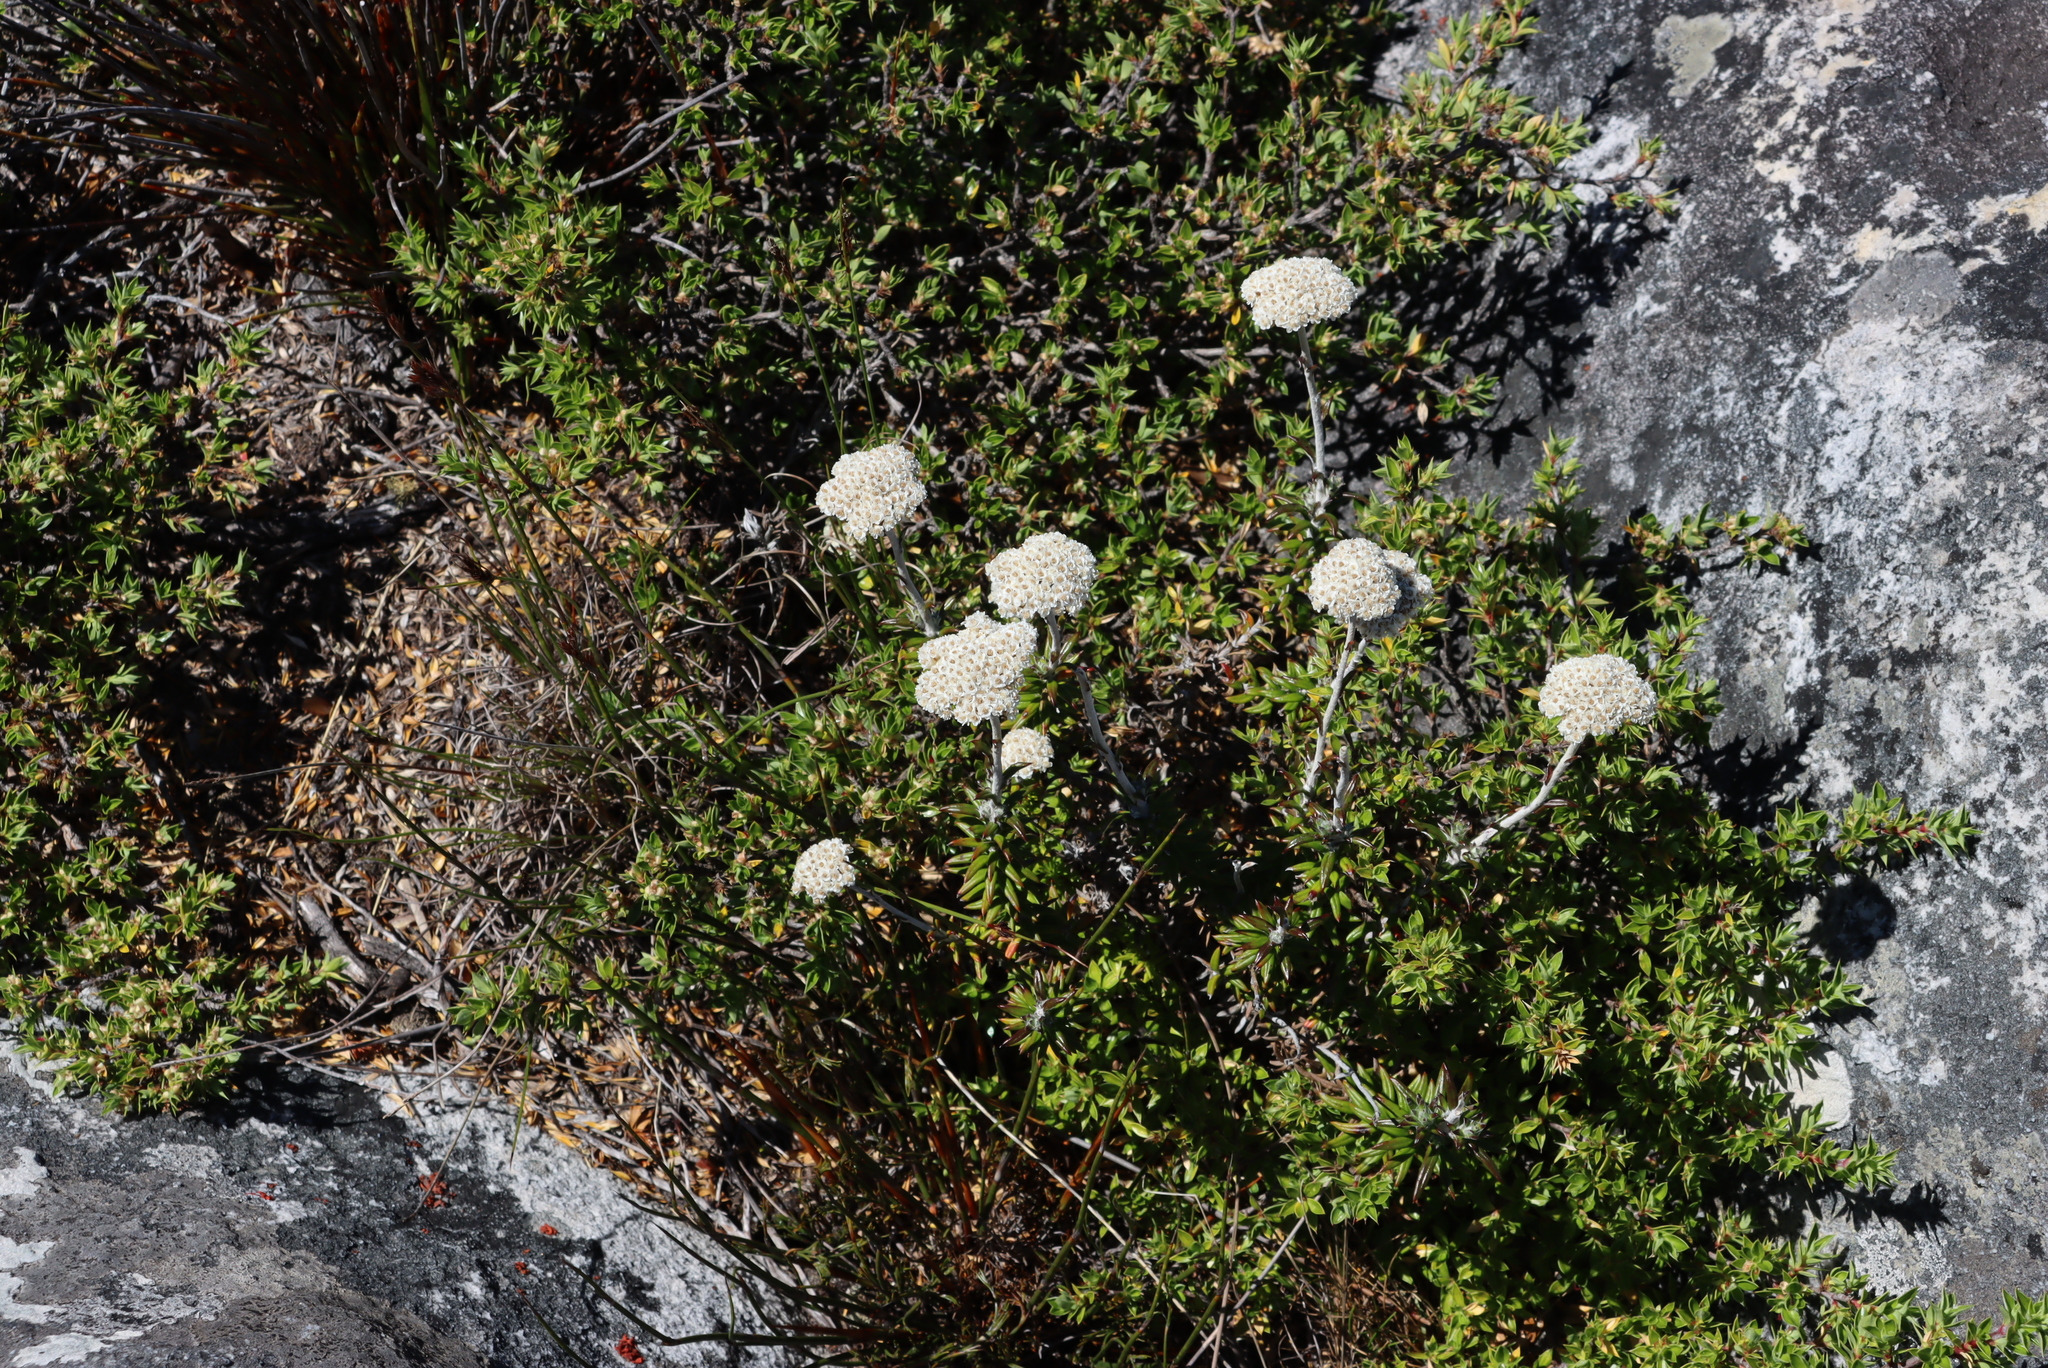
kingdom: Plantae
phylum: Tracheophyta
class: Magnoliopsida
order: Asterales
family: Asteraceae
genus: Anaxeton
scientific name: Anaxeton arborescens
